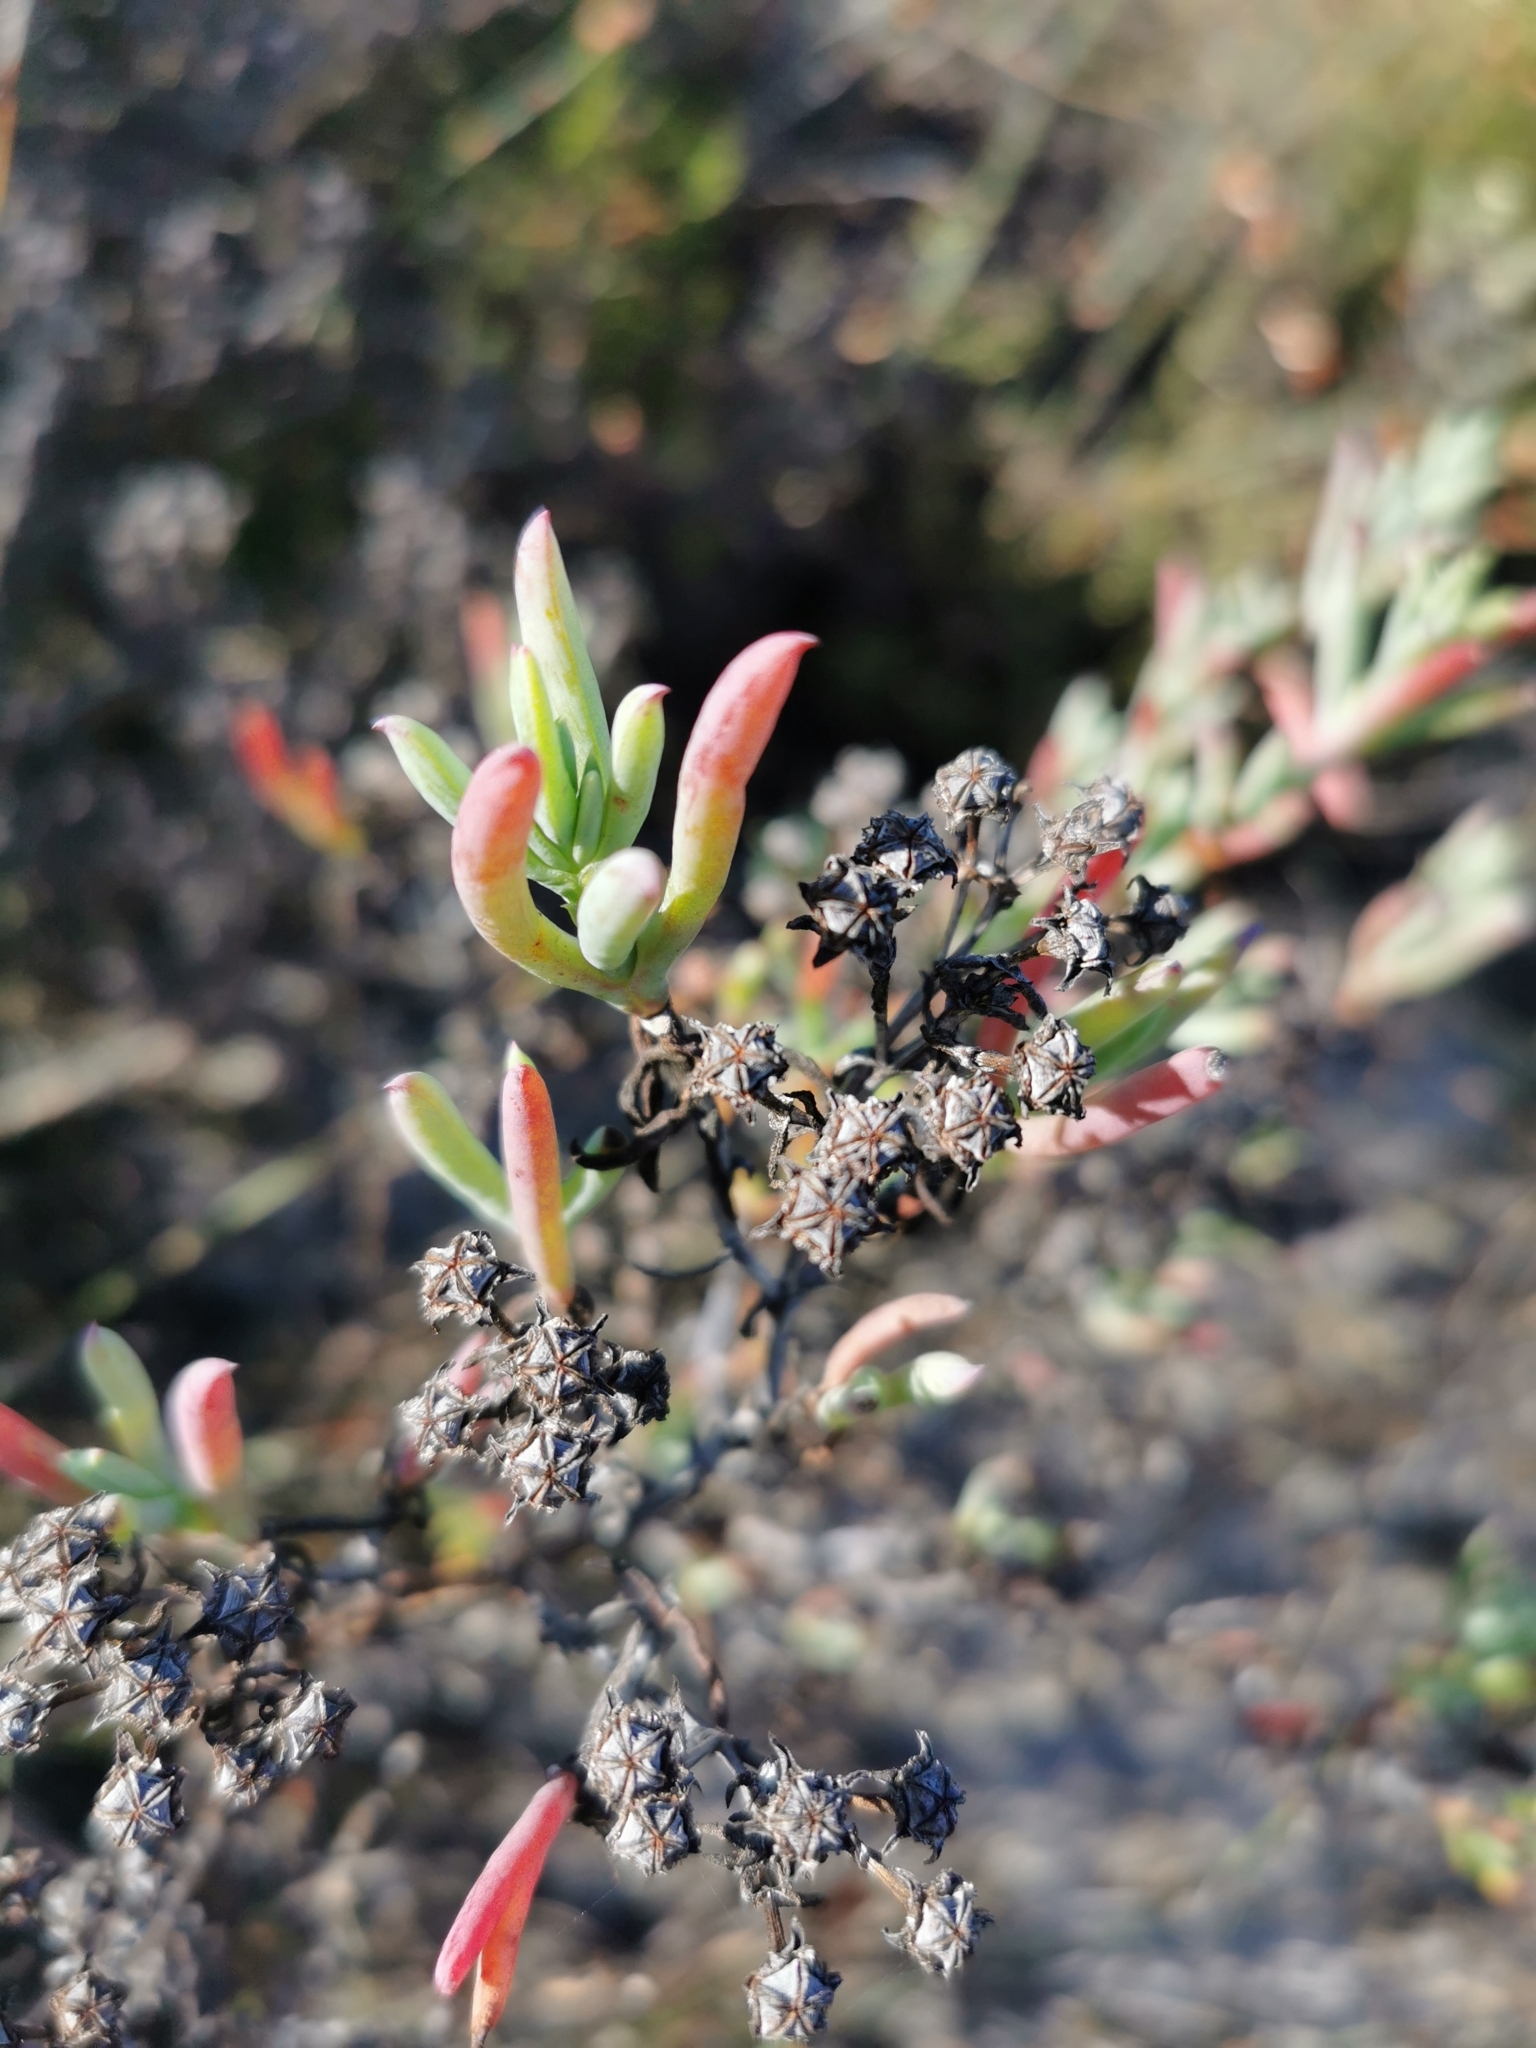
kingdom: Plantae
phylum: Tracheophyta
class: Magnoliopsida
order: Caryophyllales
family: Aizoaceae
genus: Ruschia
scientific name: Ruschia misera
